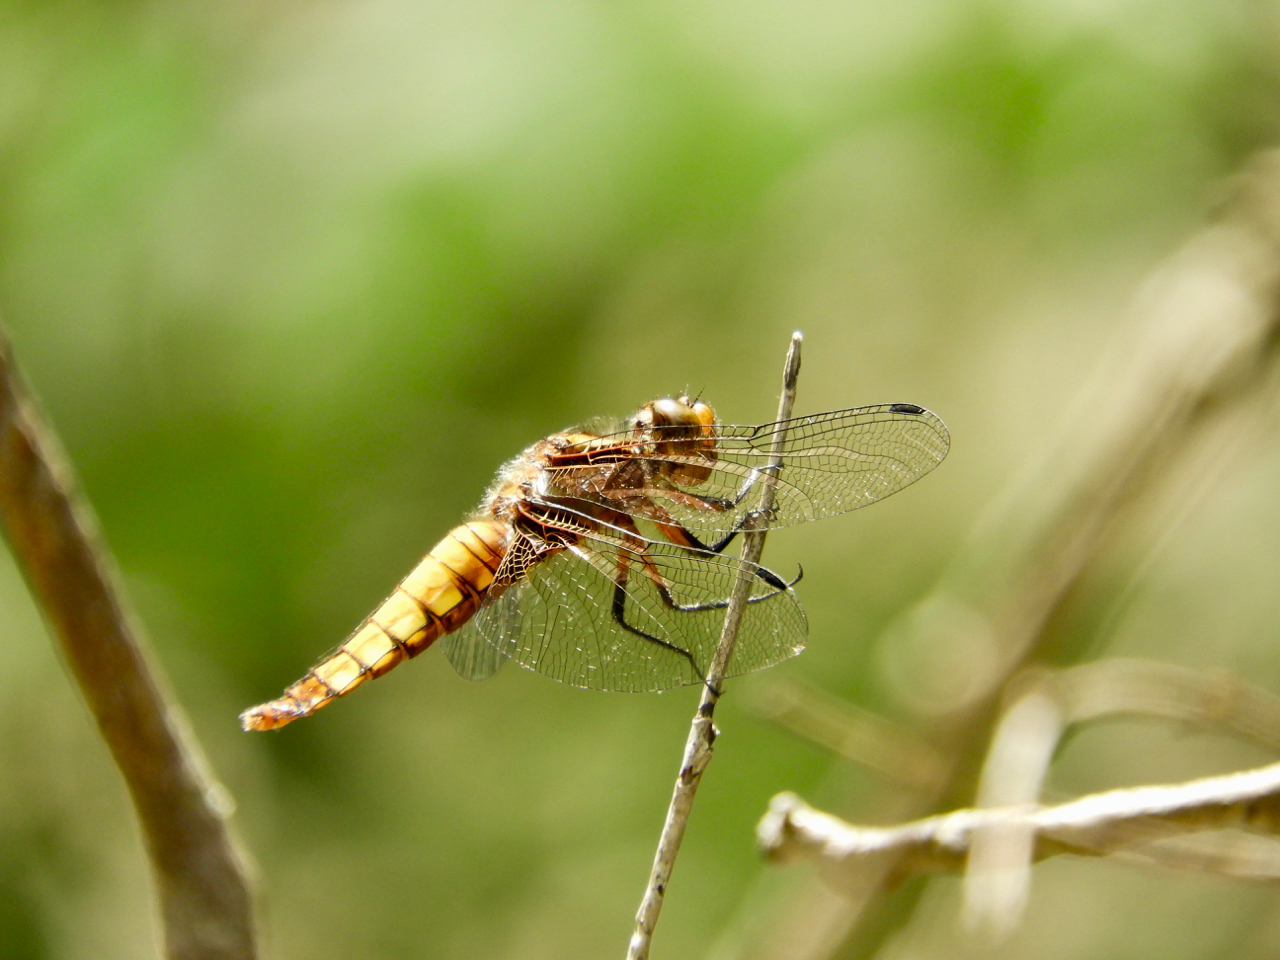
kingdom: Animalia
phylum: Arthropoda
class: Insecta
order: Odonata
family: Libellulidae
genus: Libellula
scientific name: Libellula depressa
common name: Broad-bodied chaser
